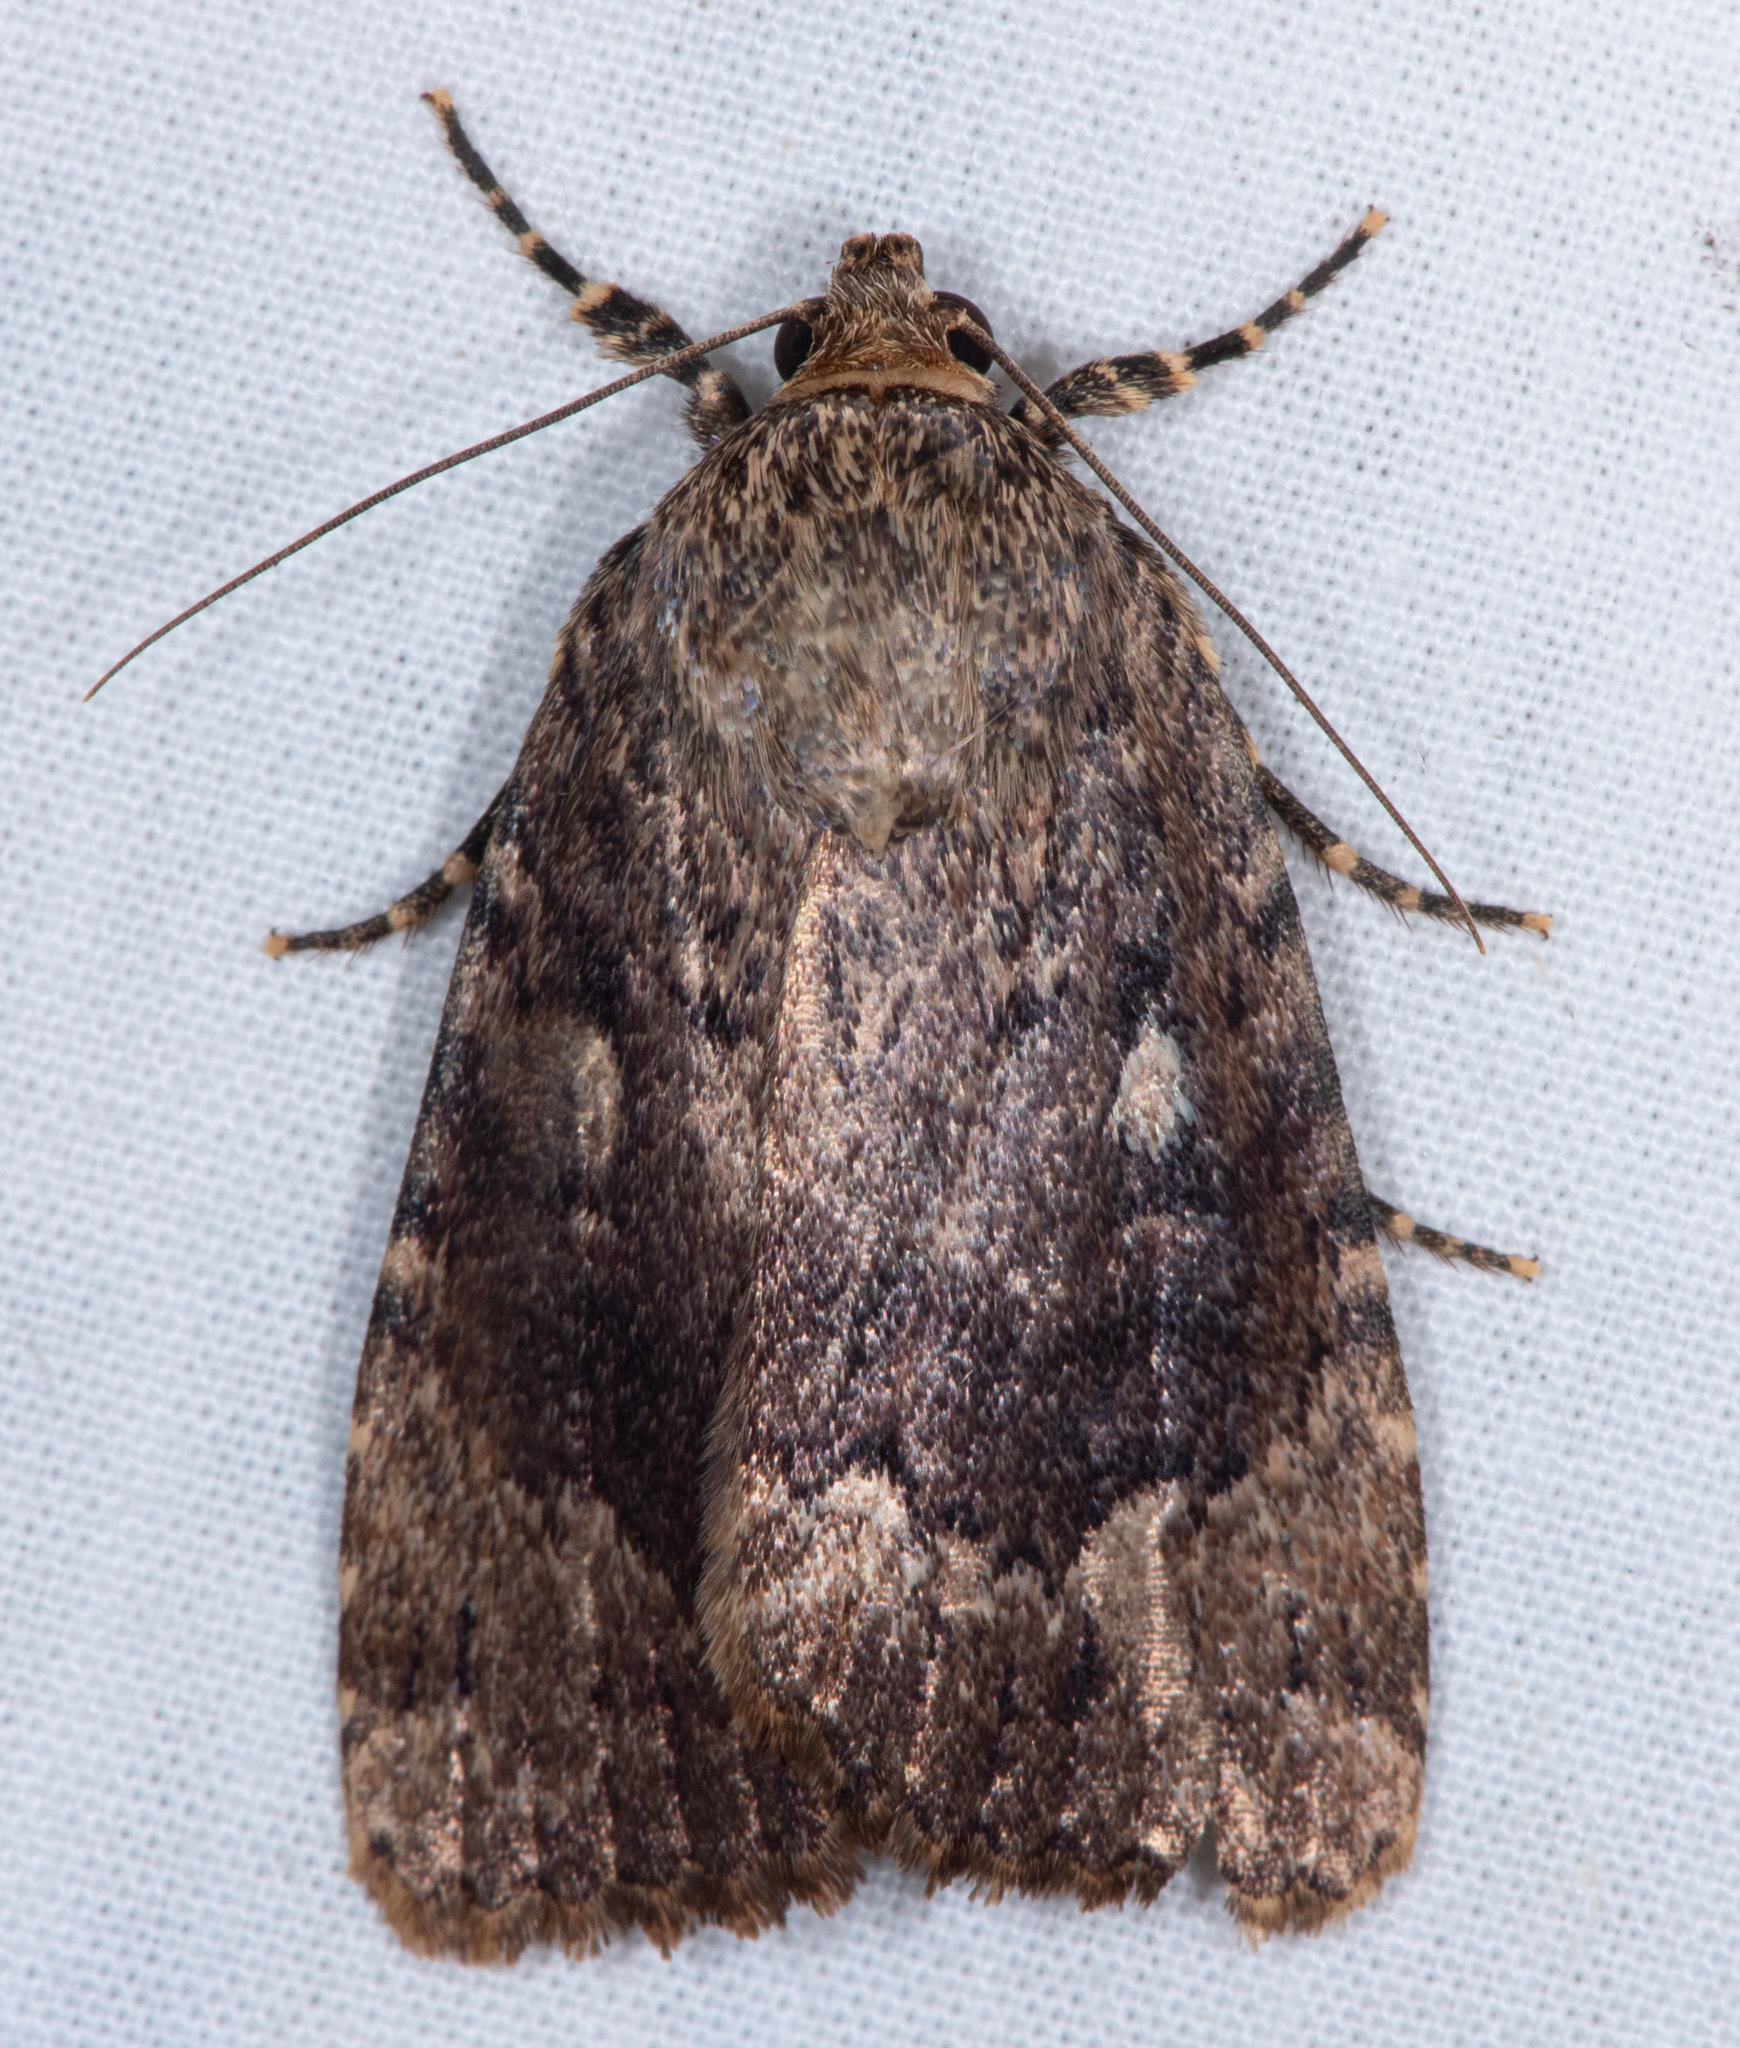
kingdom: Animalia
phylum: Arthropoda
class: Insecta
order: Lepidoptera
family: Noctuidae
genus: Amphipyra
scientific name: Amphipyra pyramidoides
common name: American copper underwing
